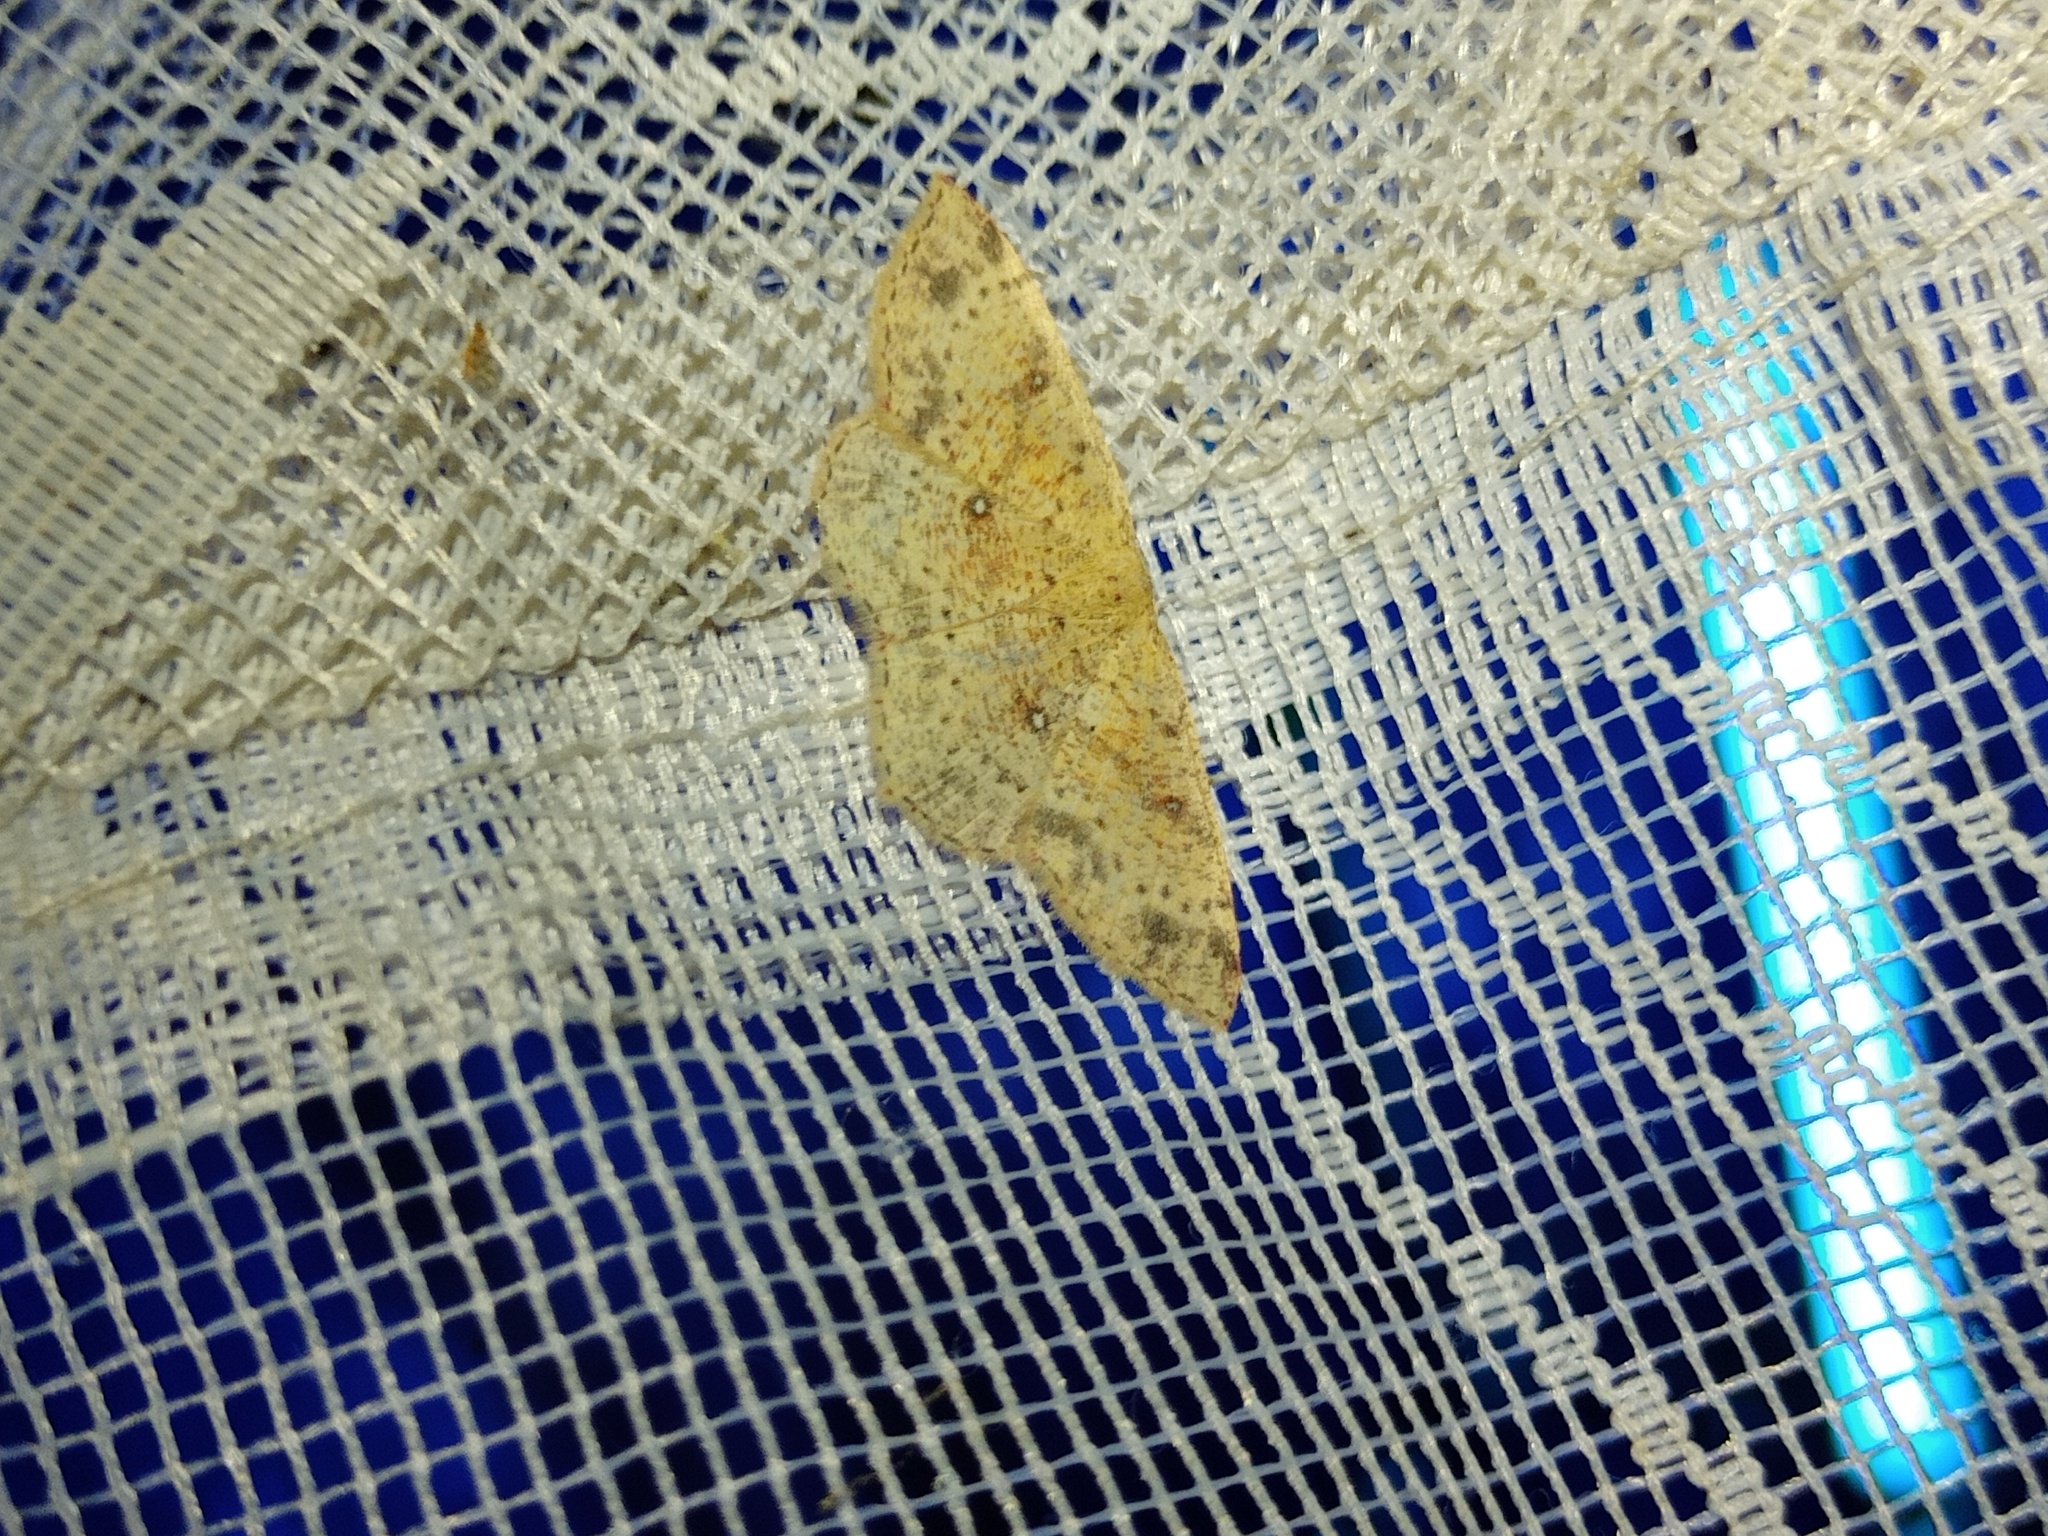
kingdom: Animalia
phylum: Arthropoda
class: Insecta
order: Lepidoptera
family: Geometridae
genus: Cyclophora
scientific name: Cyclophora porata
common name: False mocha
